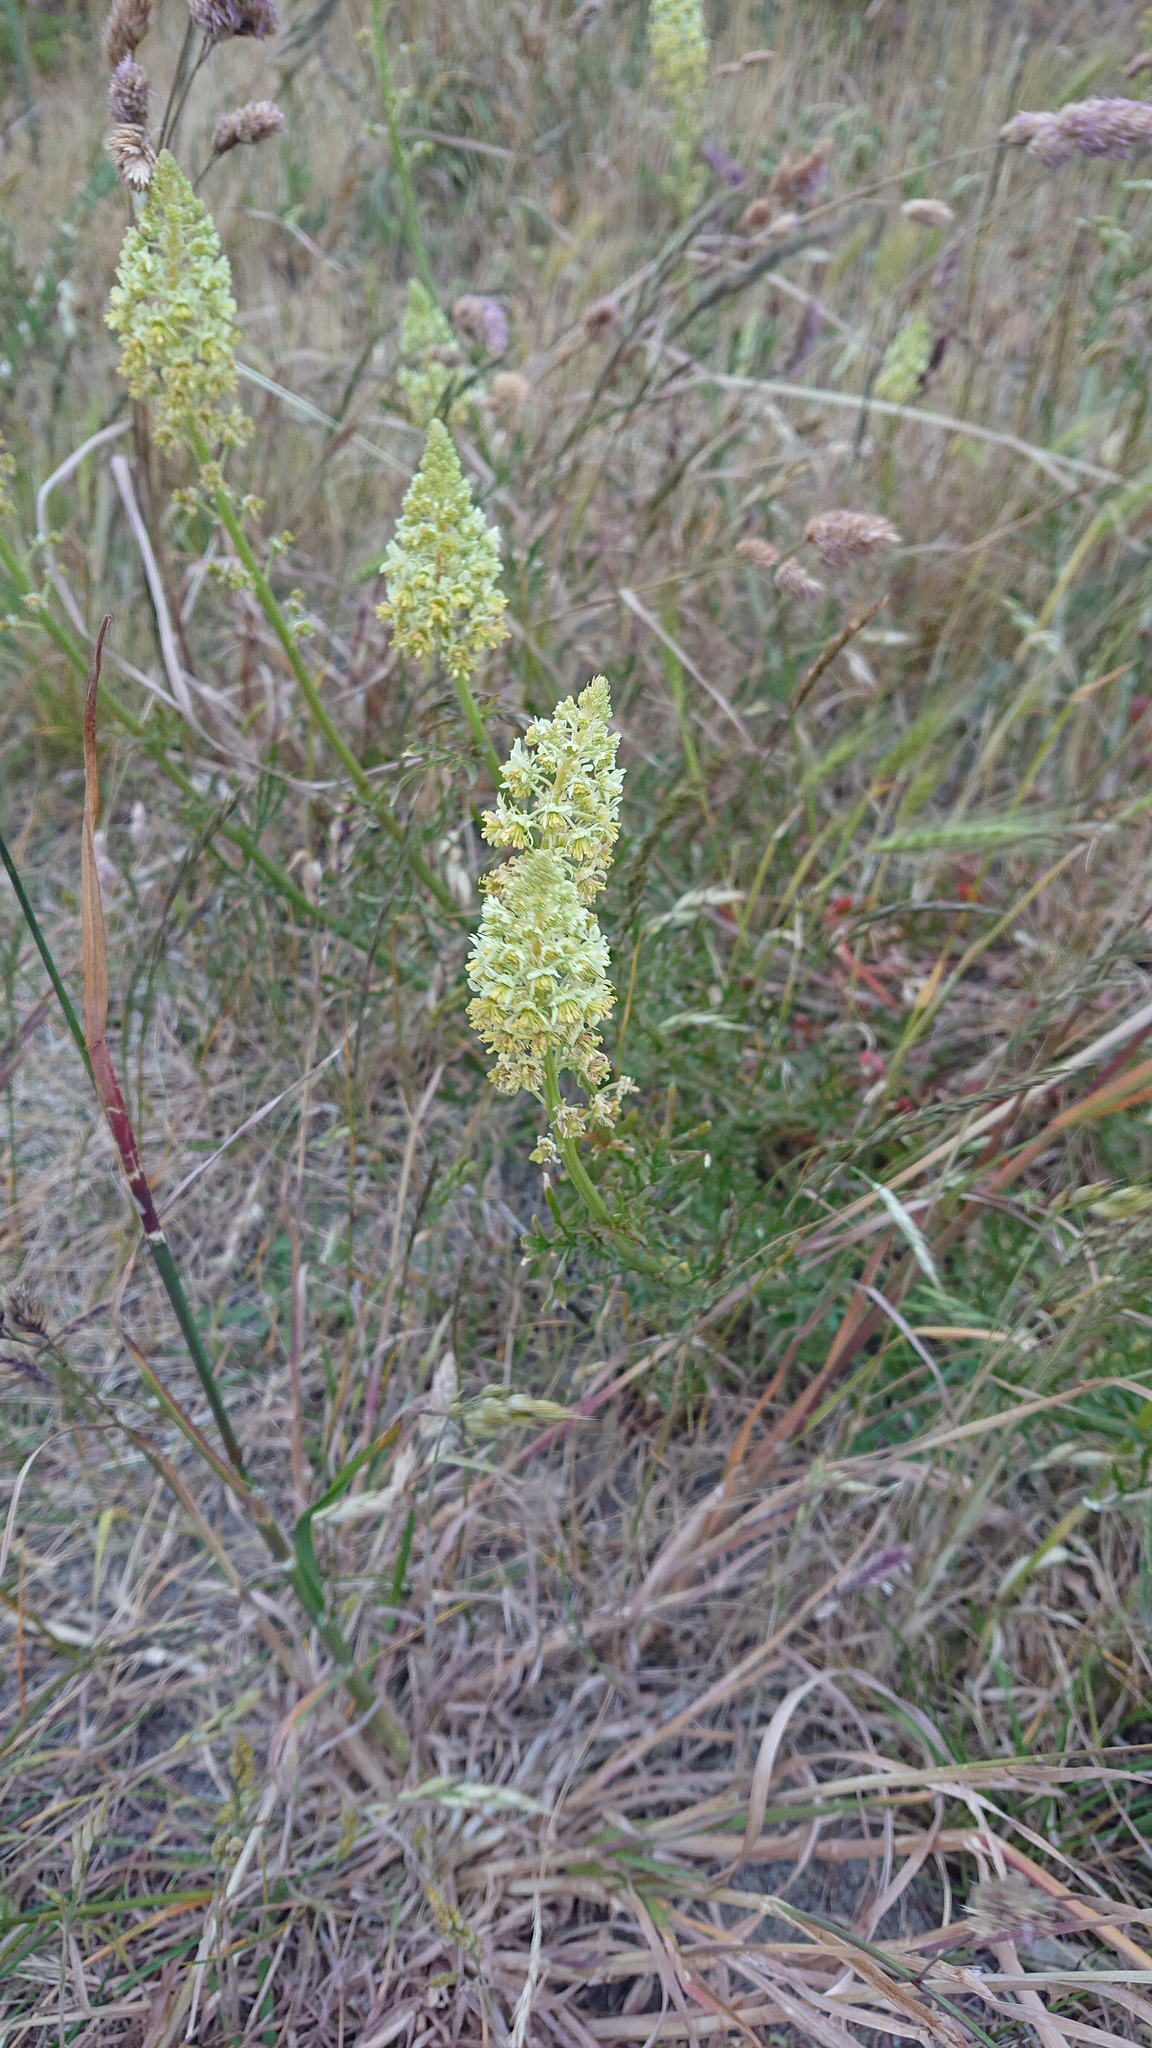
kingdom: Plantae
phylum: Tracheophyta
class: Magnoliopsida
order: Brassicales
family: Resedaceae
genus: Reseda
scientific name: Reseda lutea
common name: Wild mignonette
